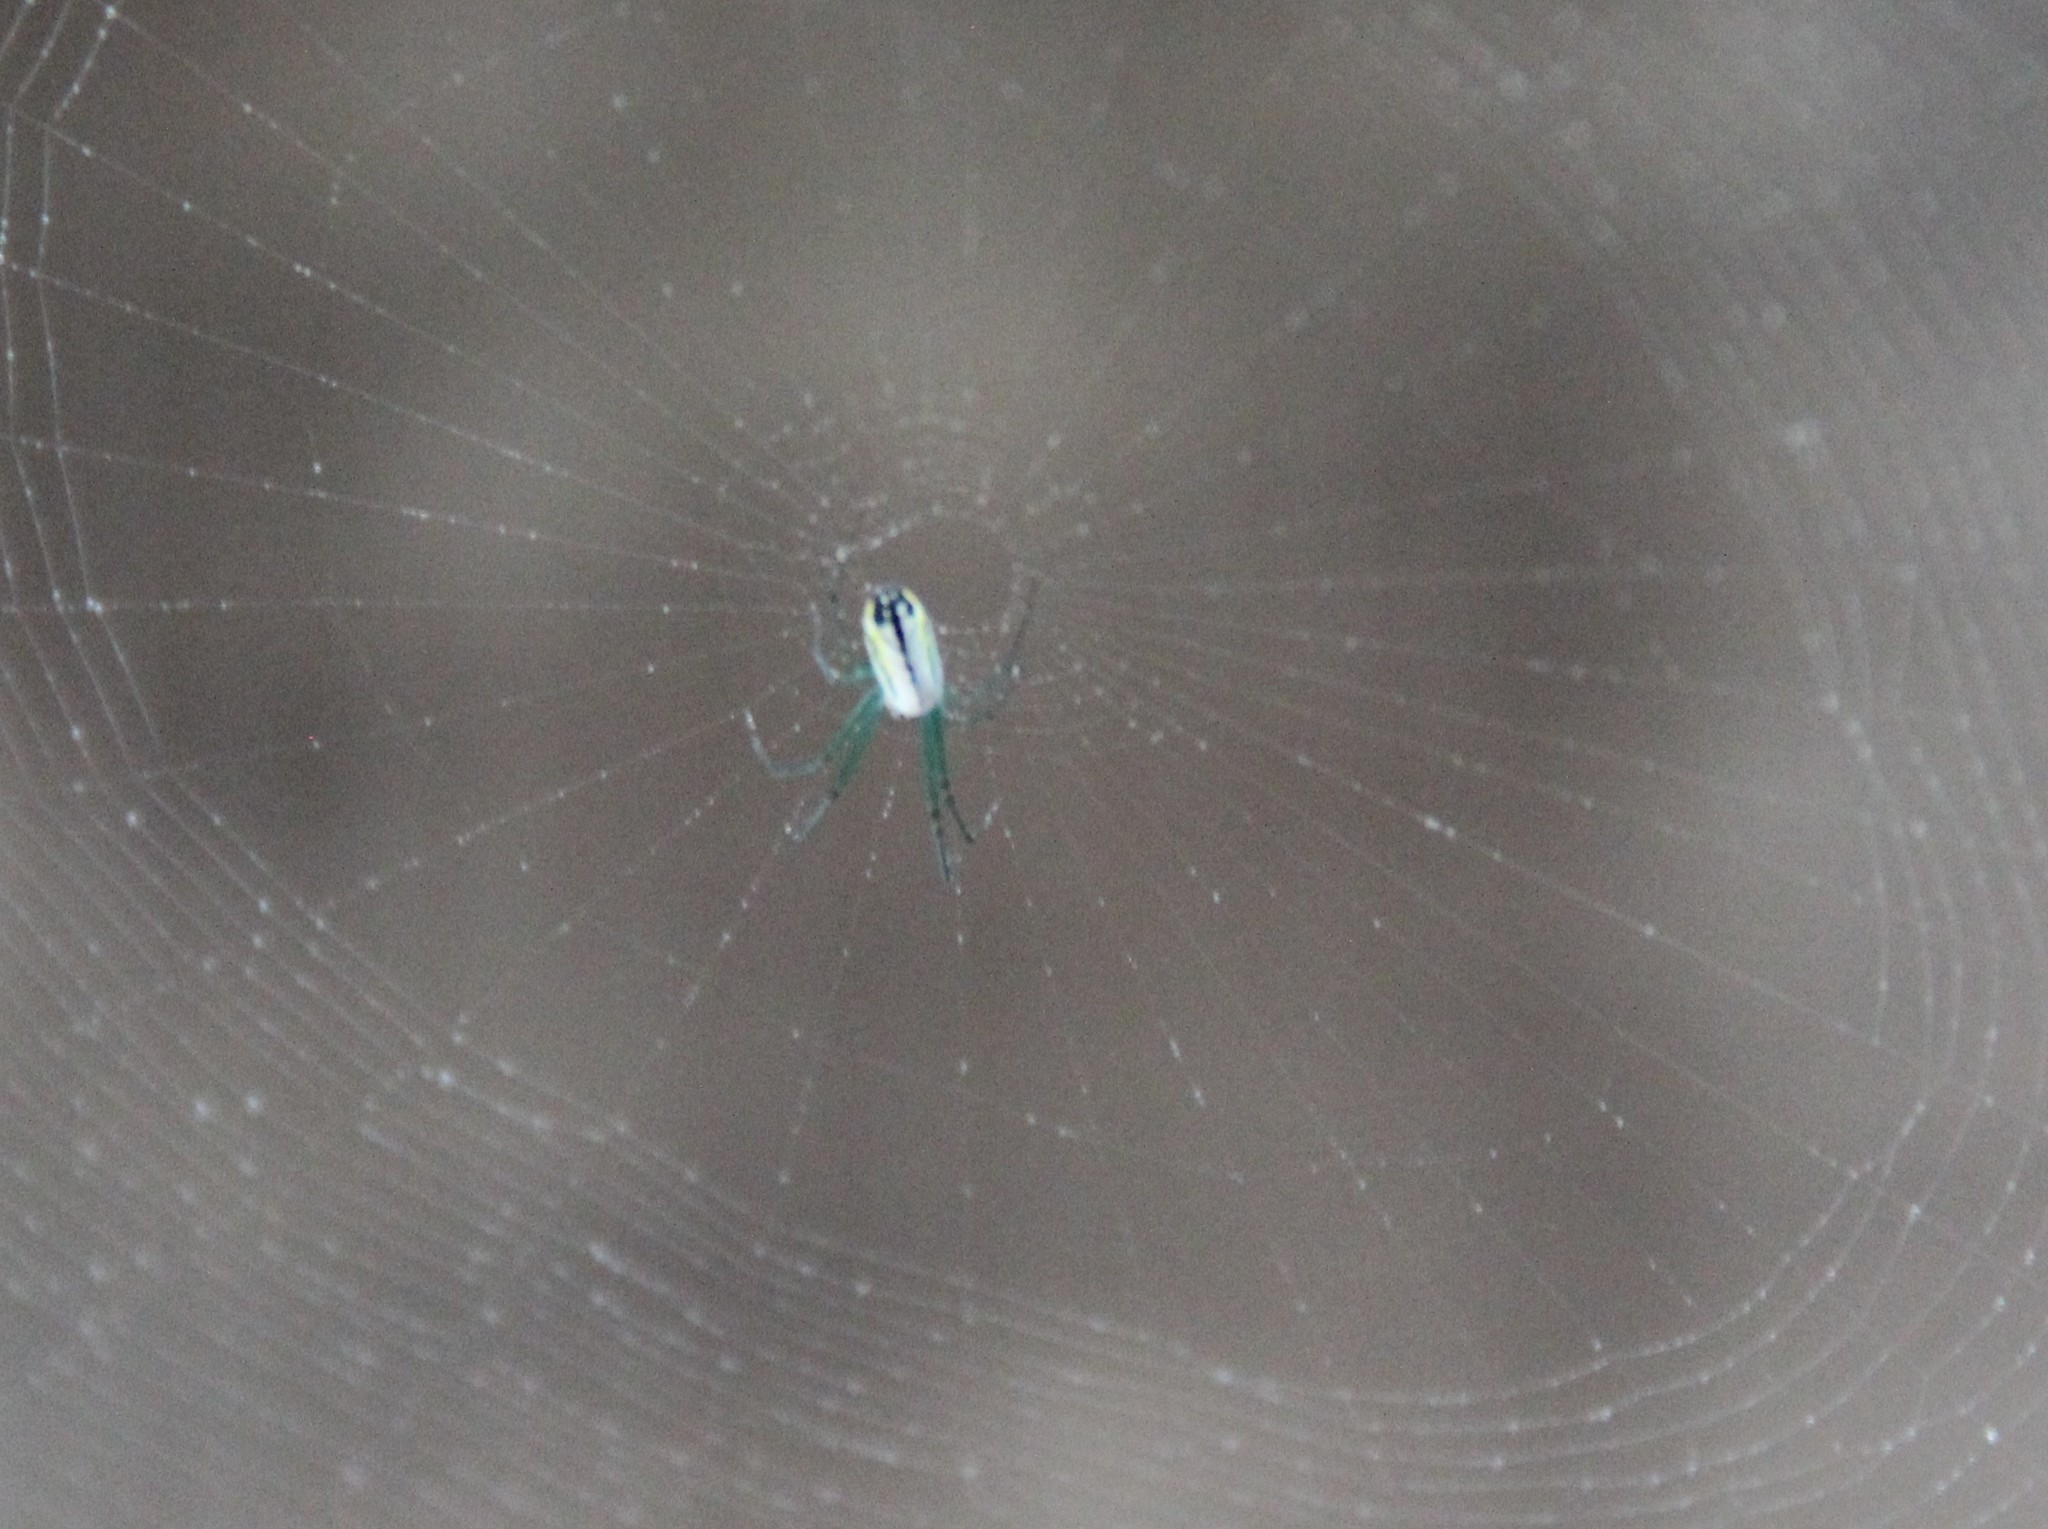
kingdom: Animalia
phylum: Arthropoda
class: Arachnida
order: Araneae
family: Tetragnathidae
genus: Leucauge
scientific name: Leucauge venusta
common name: Longjawed orb weavers
